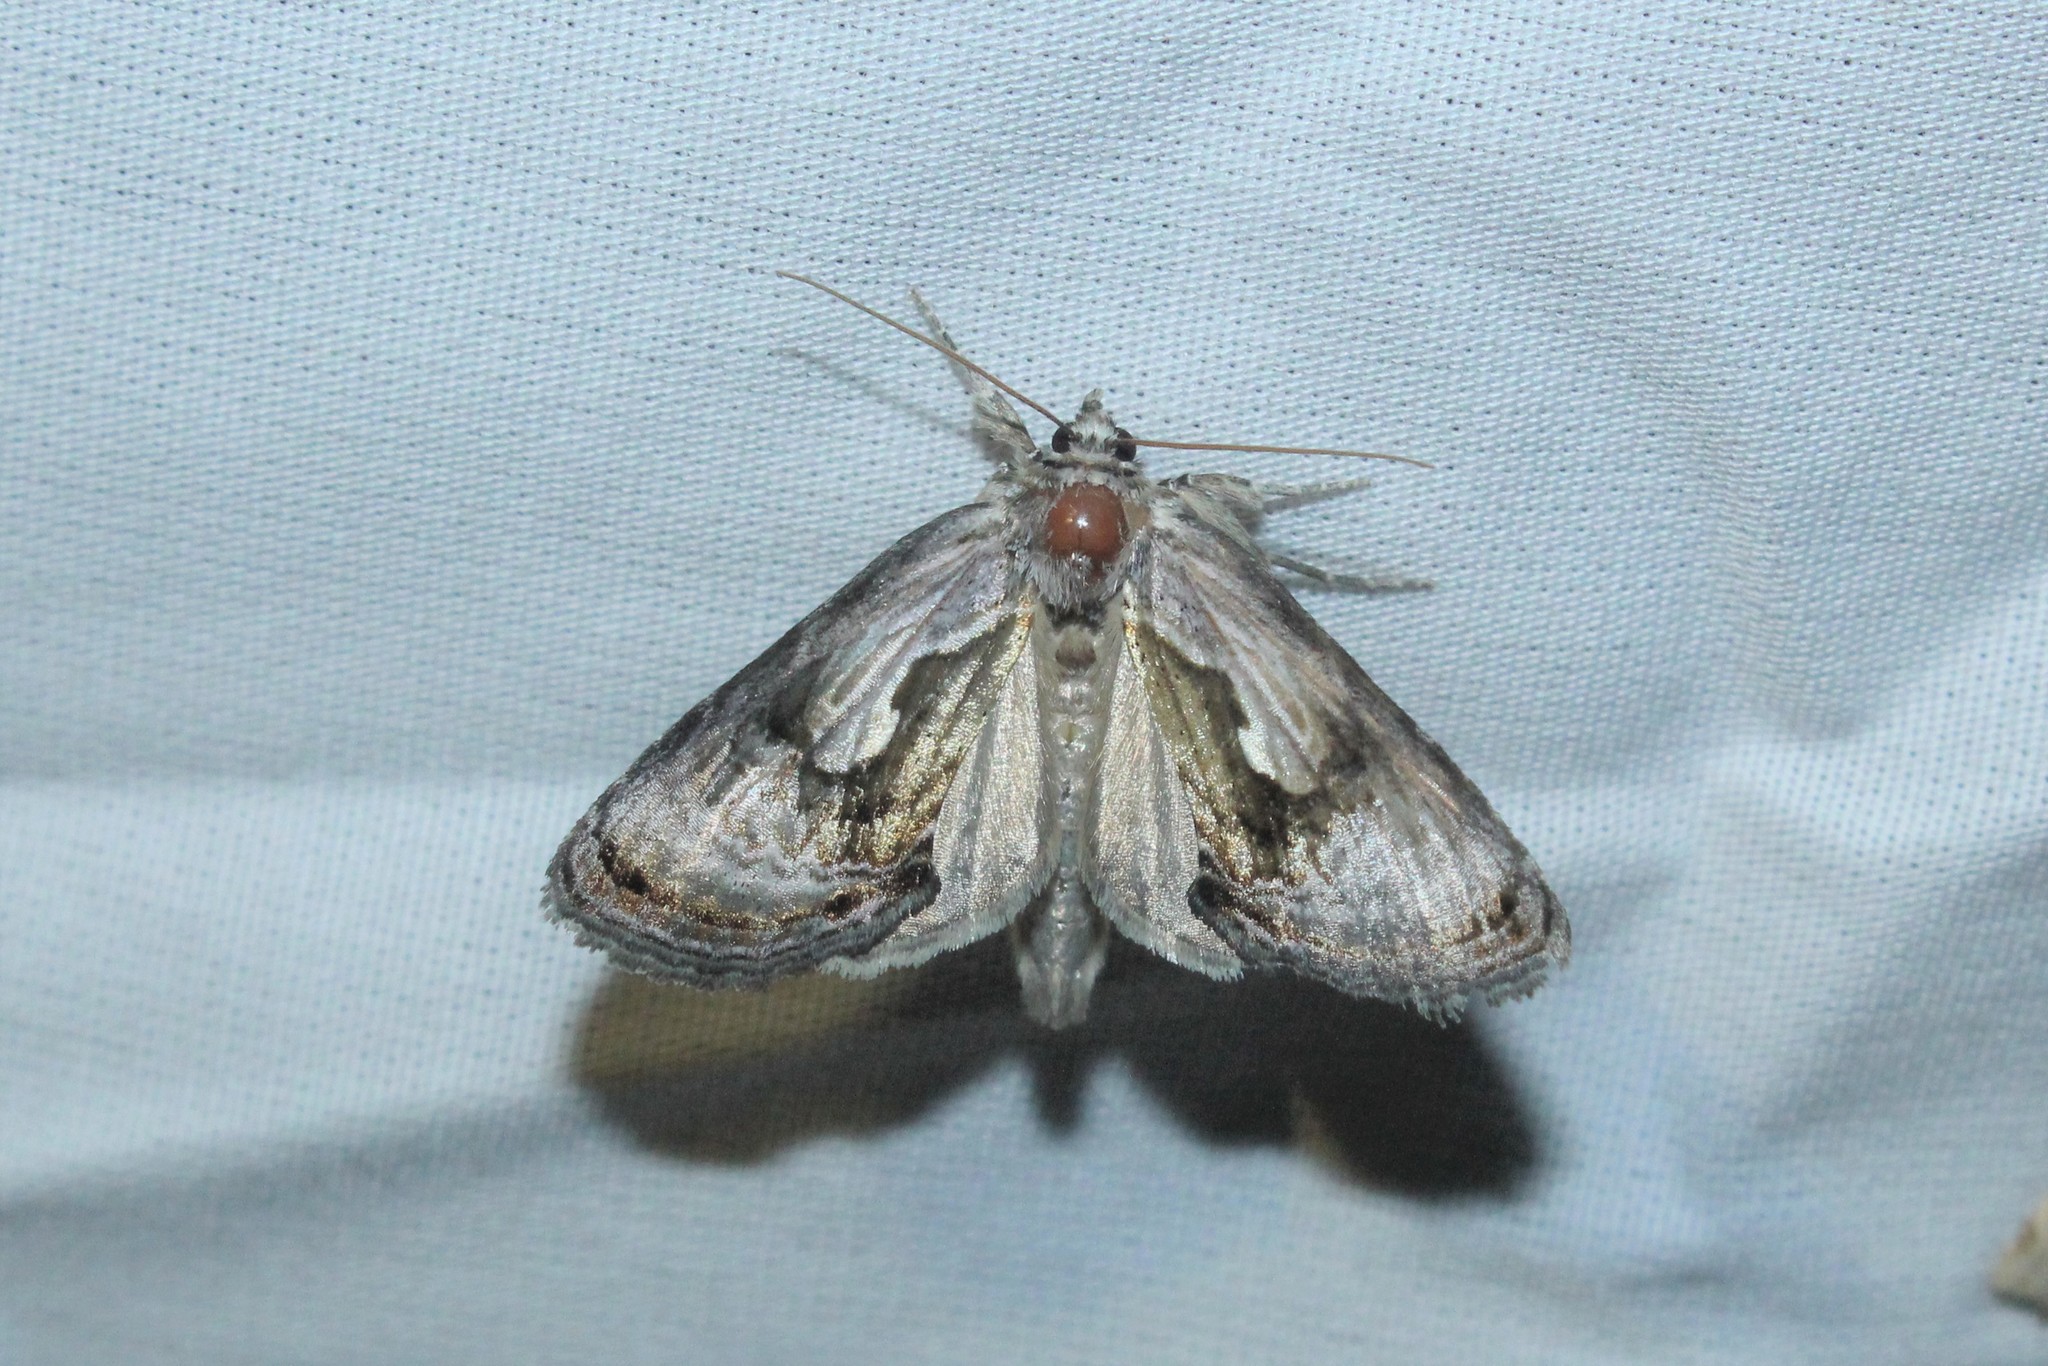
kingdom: Animalia
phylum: Arthropoda
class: Insecta
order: Lepidoptera
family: Noctuidae
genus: Chrysanympha
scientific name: Chrysanympha formosa
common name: Formosa looper moth
